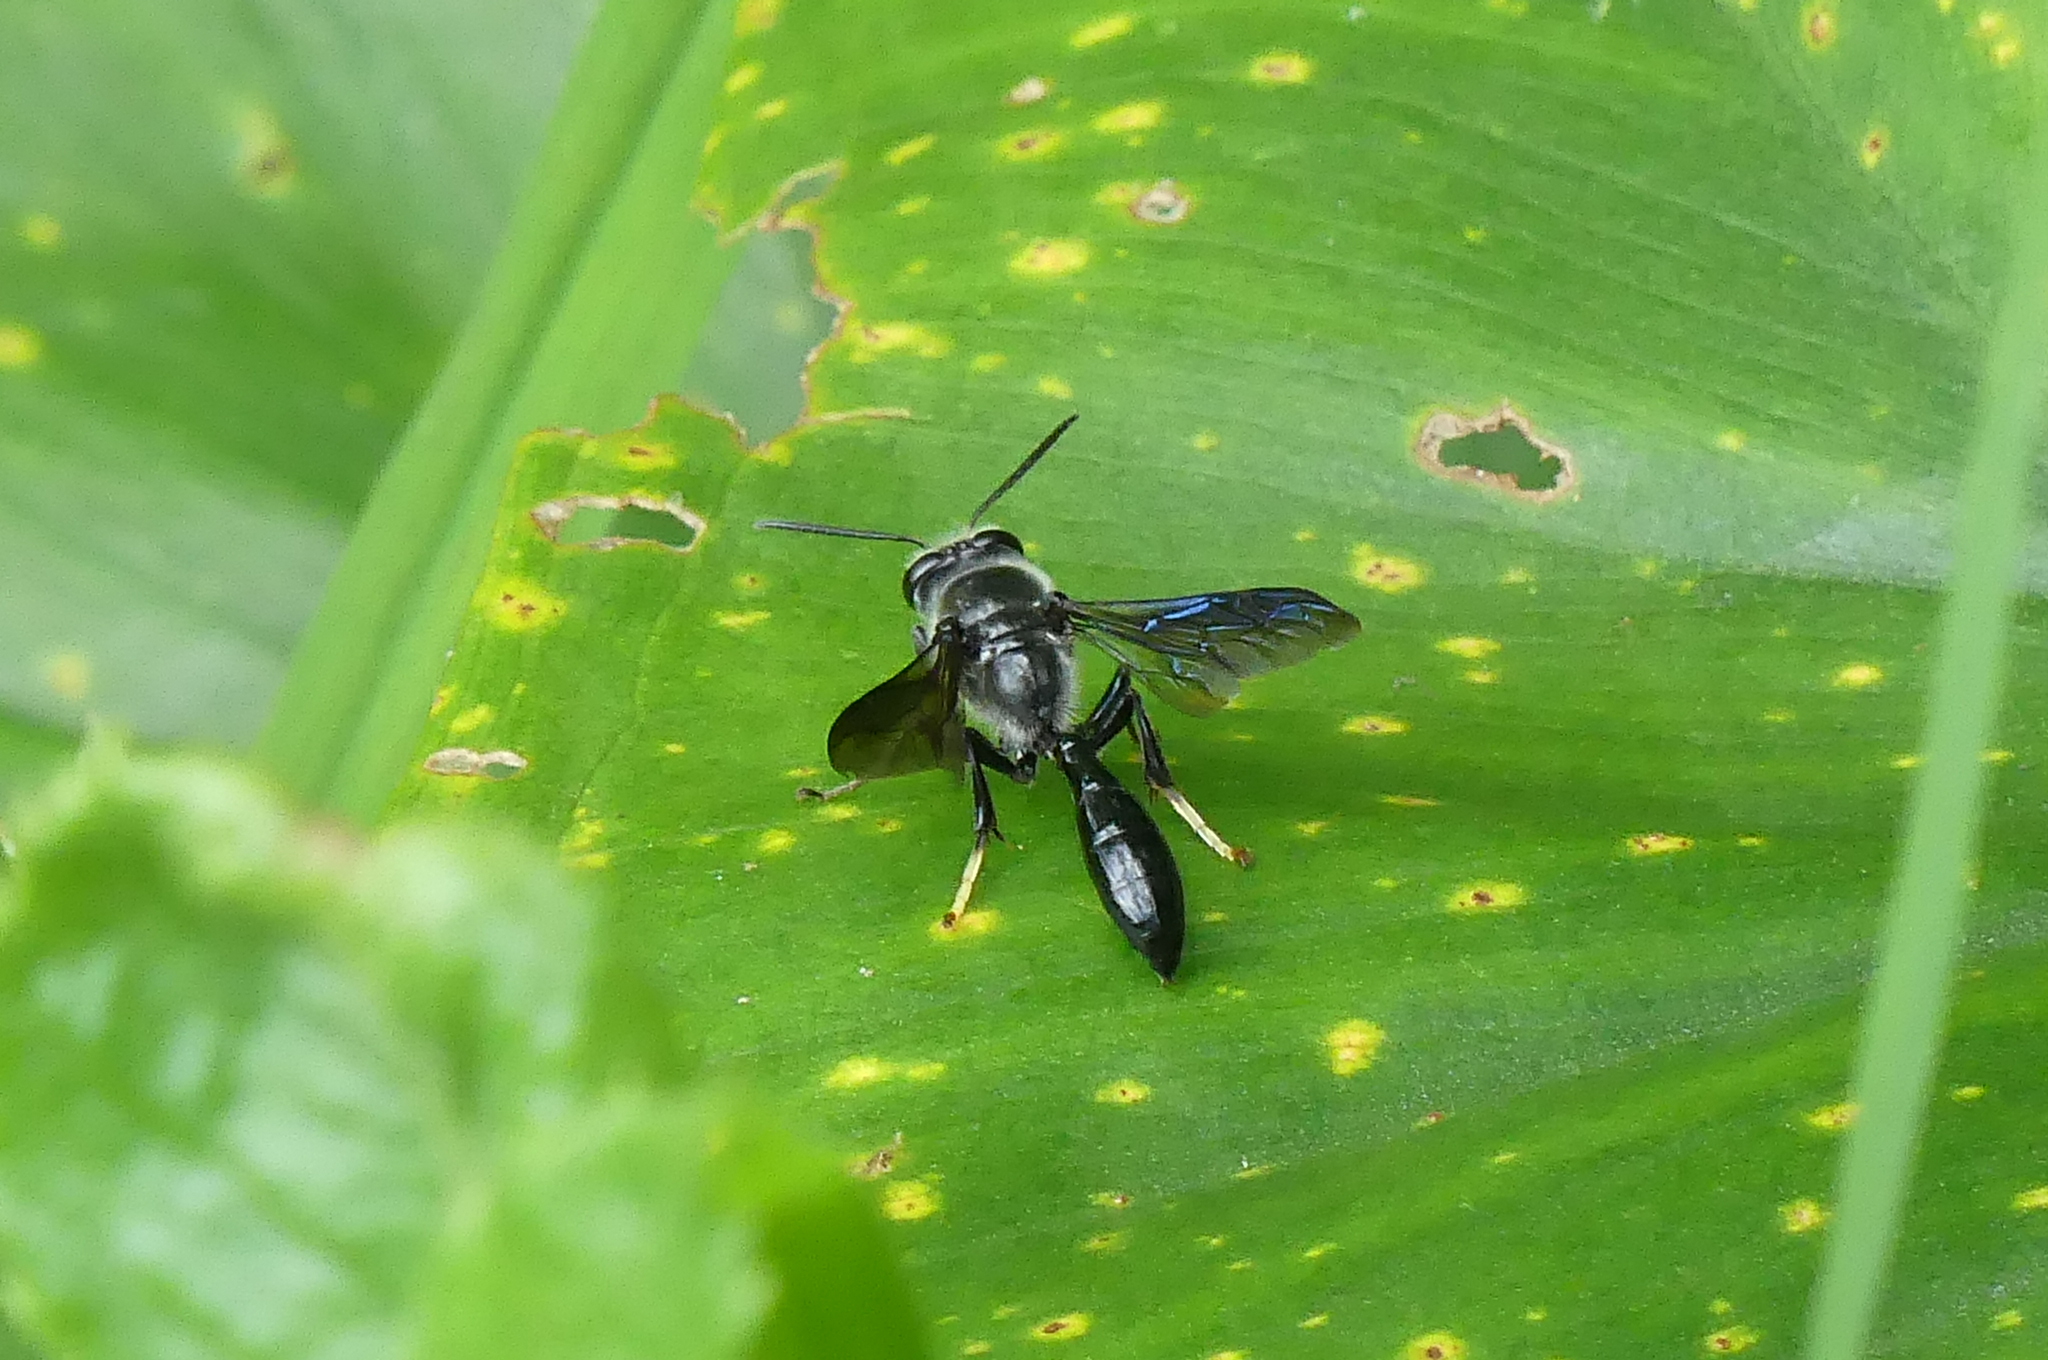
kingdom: Animalia
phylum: Arthropoda
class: Insecta
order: Hymenoptera
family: Crabronidae
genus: Trypoxylon
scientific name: Trypoxylon lactitarse
